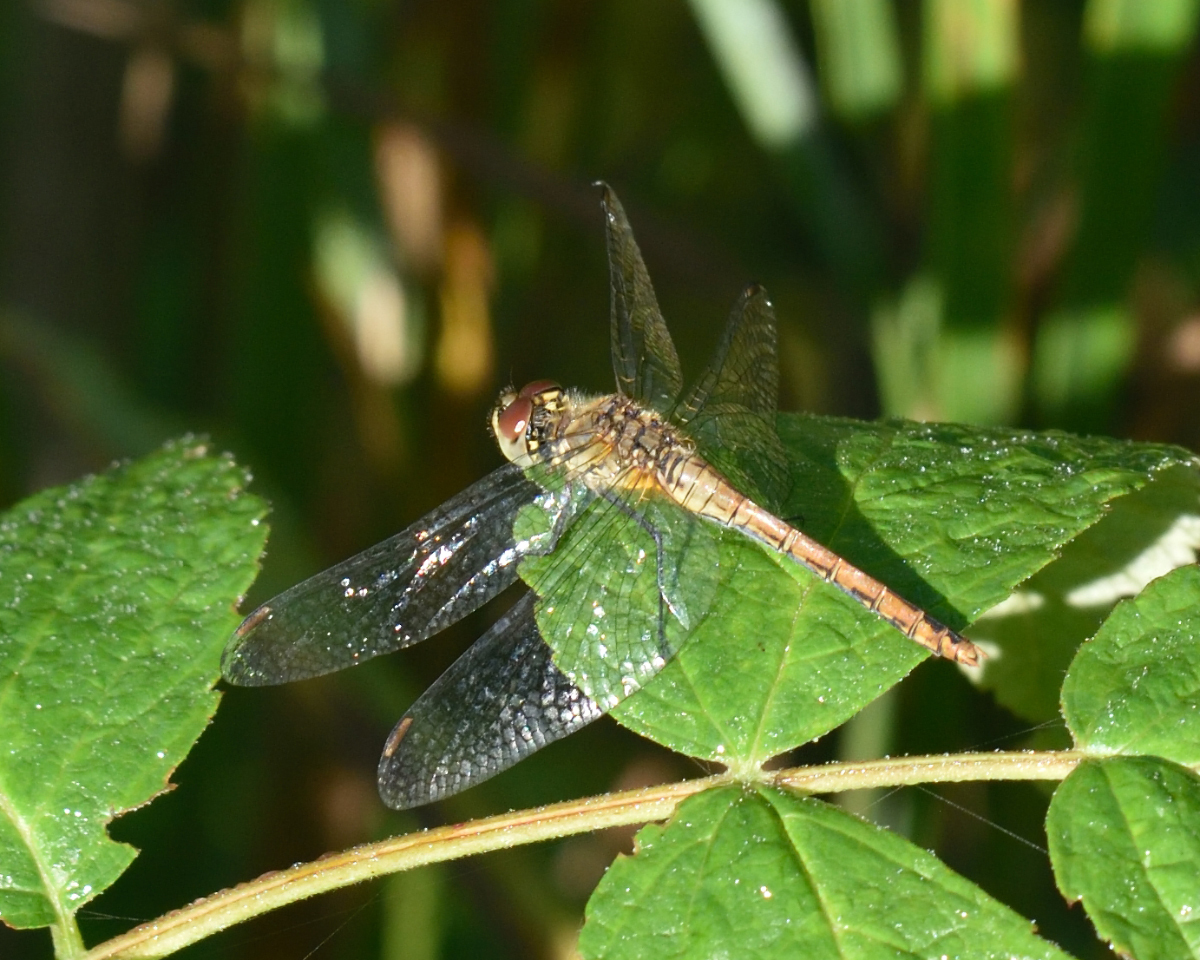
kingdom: Animalia
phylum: Arthropoda
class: Insecta
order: Odonata
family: Libellulidae
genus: Sympetrum
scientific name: Sympetrum sanguineum
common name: Ruddy darter
